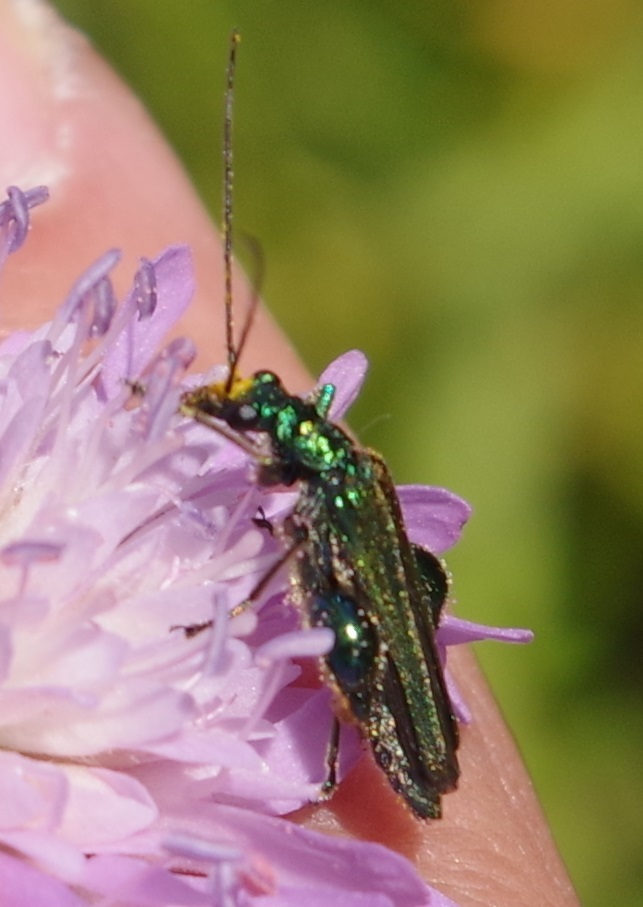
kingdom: Animalia
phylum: Arthropoda
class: Insecta
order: Coleoptera
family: Oedemeridae
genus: Oedemera
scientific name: Oedemera nobilis
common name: Swollen-thighed beetle
